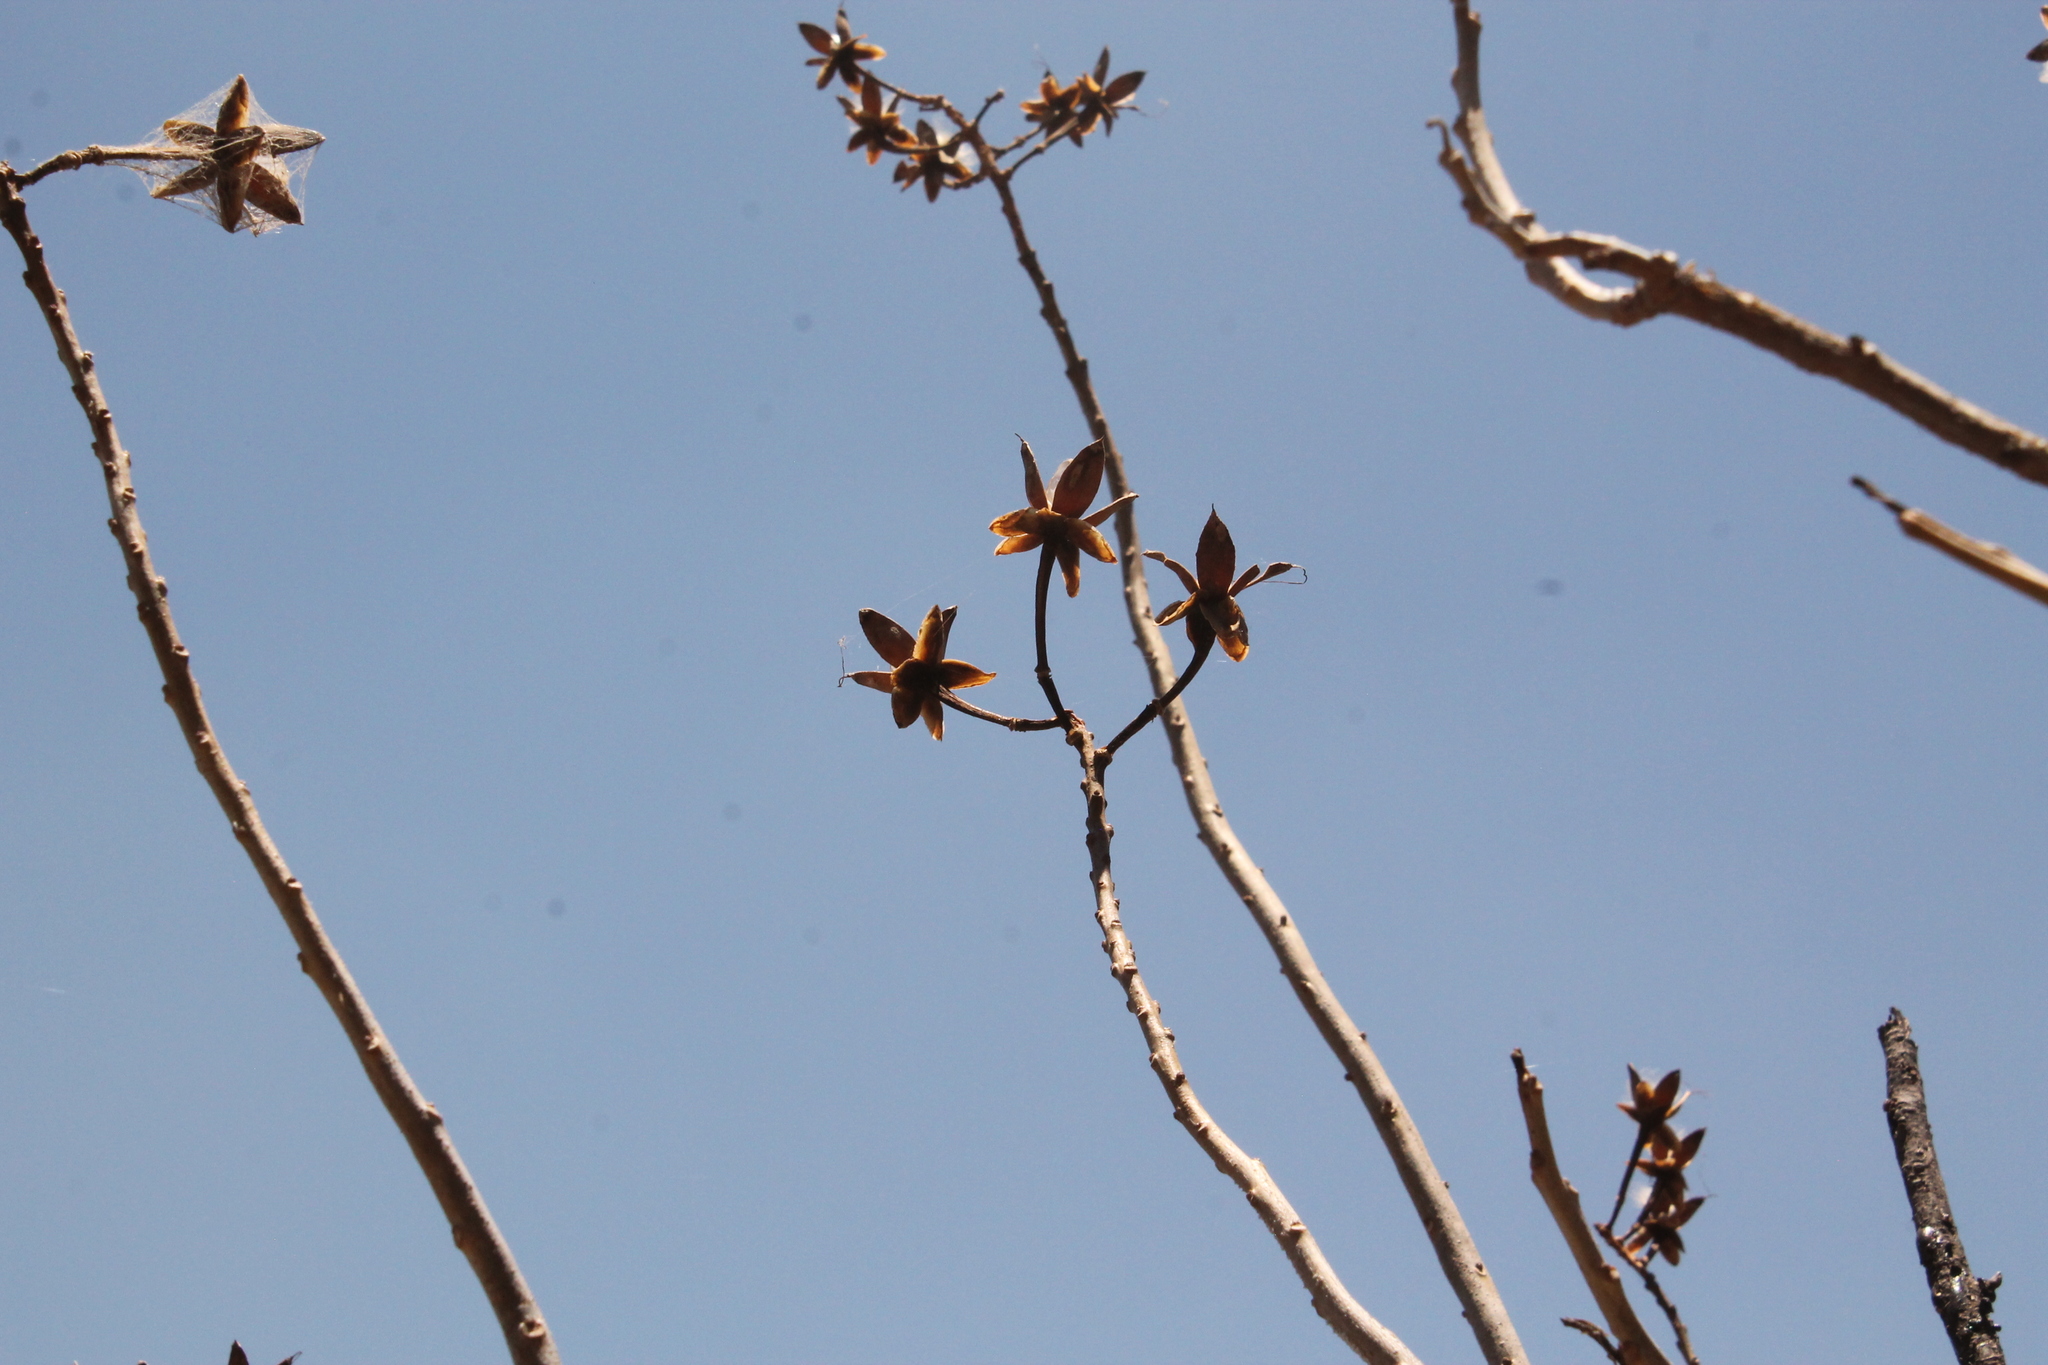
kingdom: Plantae
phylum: Tracheophyta
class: Magnoliopsida
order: Solanales
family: Convolvulaceae
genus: Ipomoea
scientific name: Ipomoea intrapilosa
